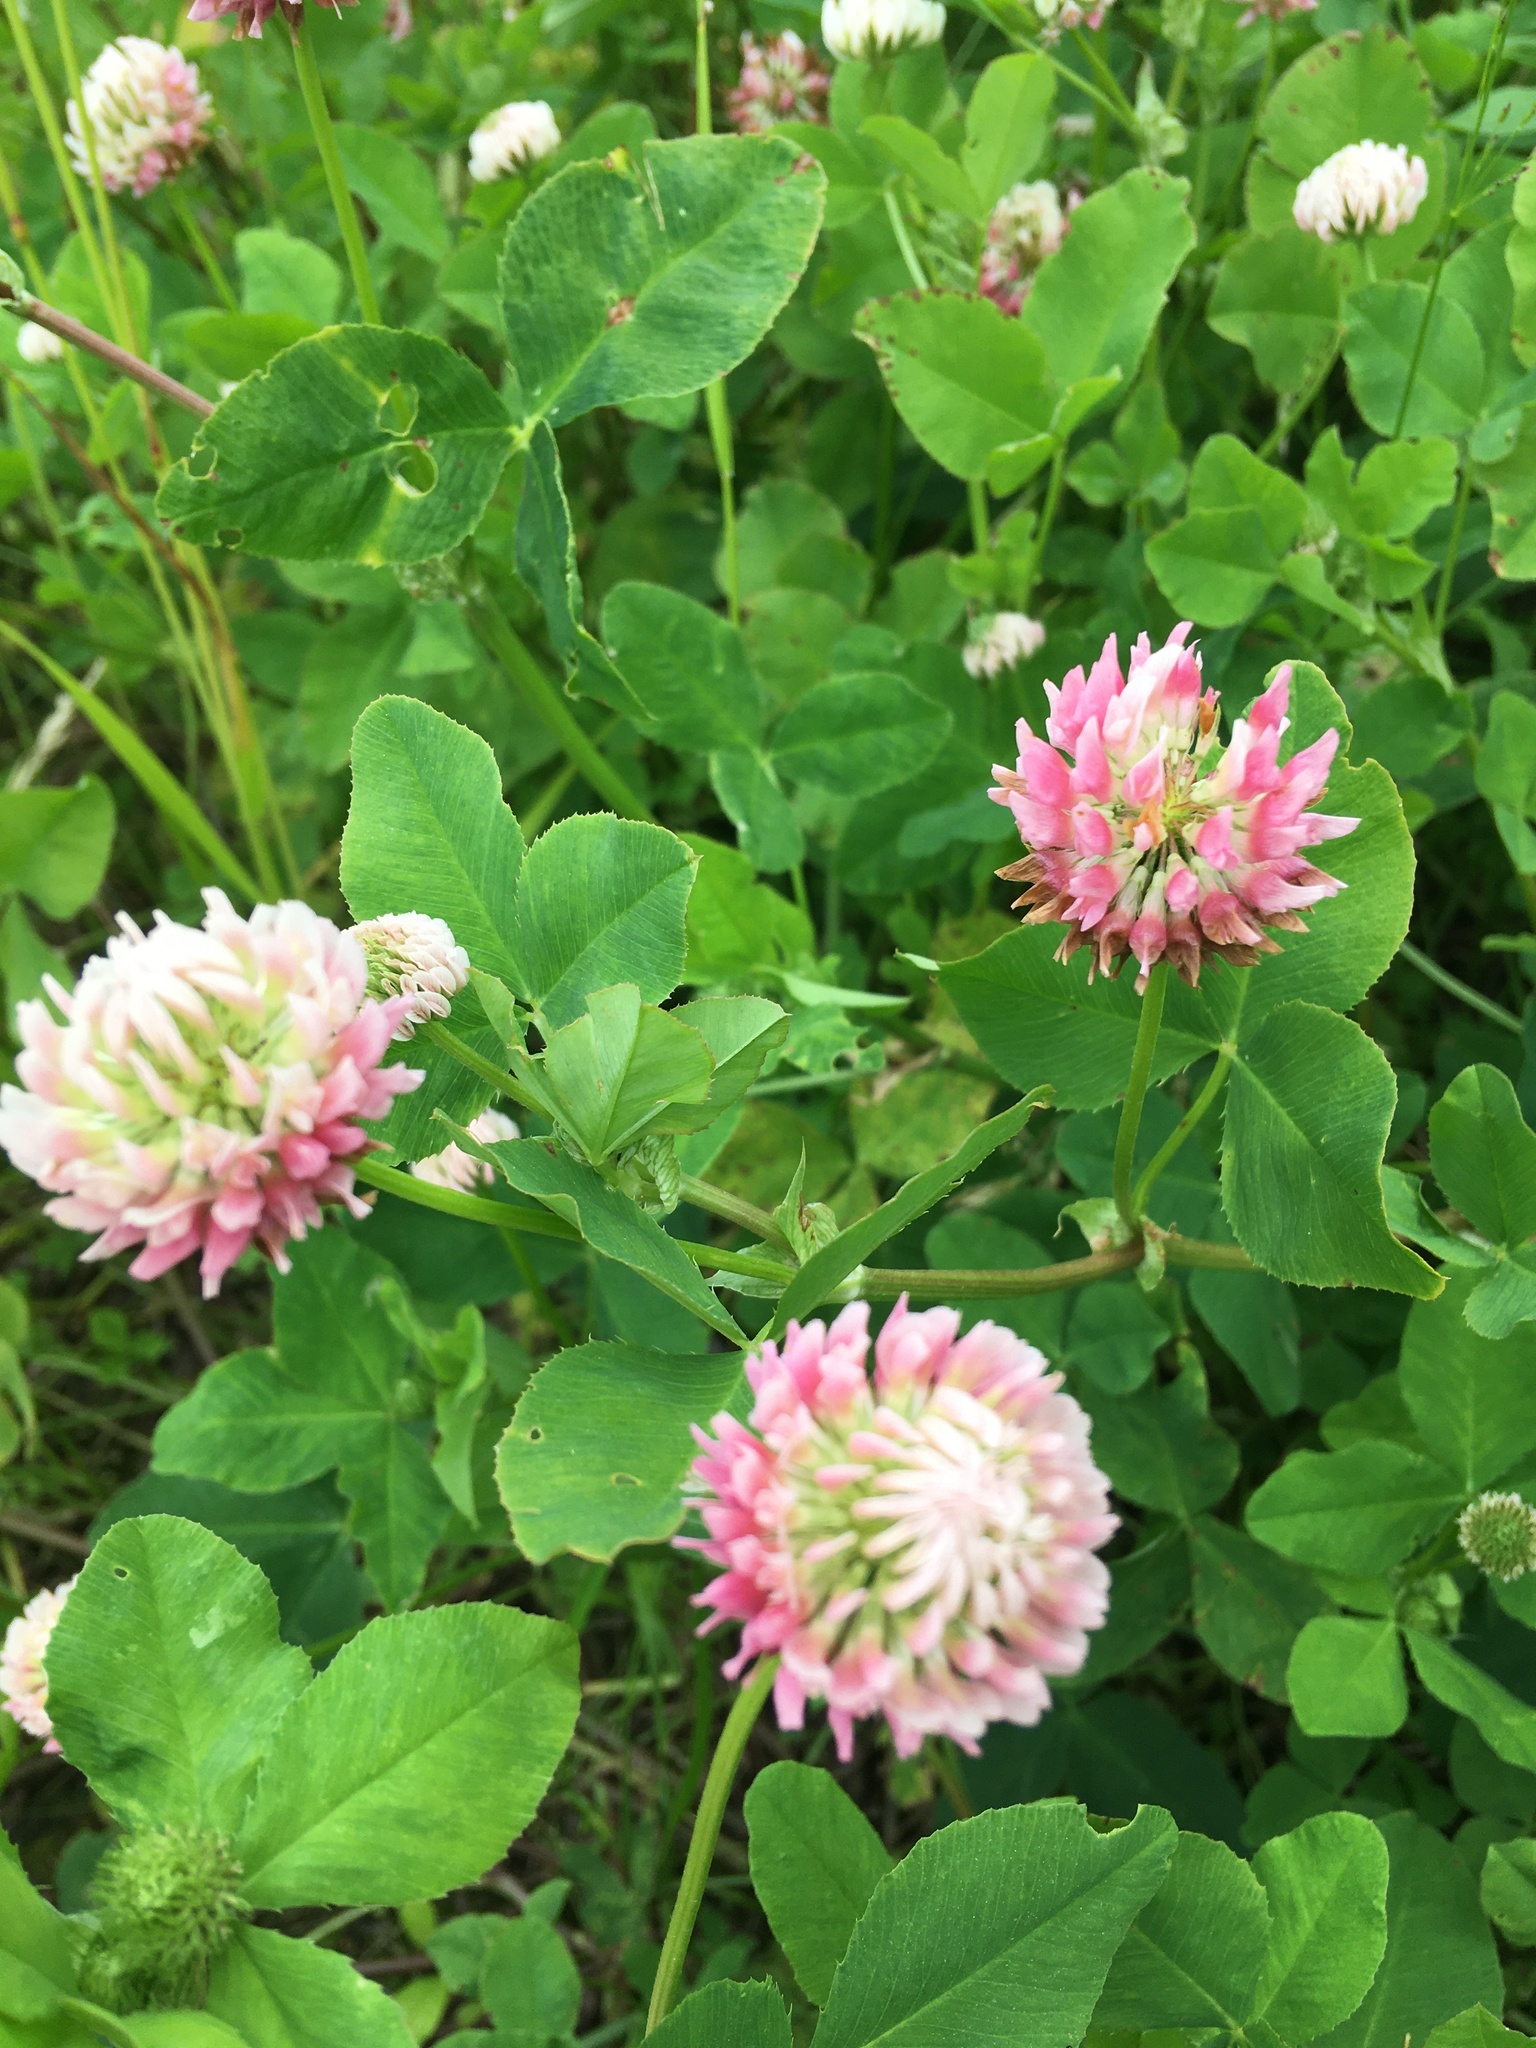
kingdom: Plantae
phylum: Tracheophyta
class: Magnoliopsida
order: Fabales
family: Fabaceae
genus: Trifolium
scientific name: Trifolium hybridum
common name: Alsike clover
